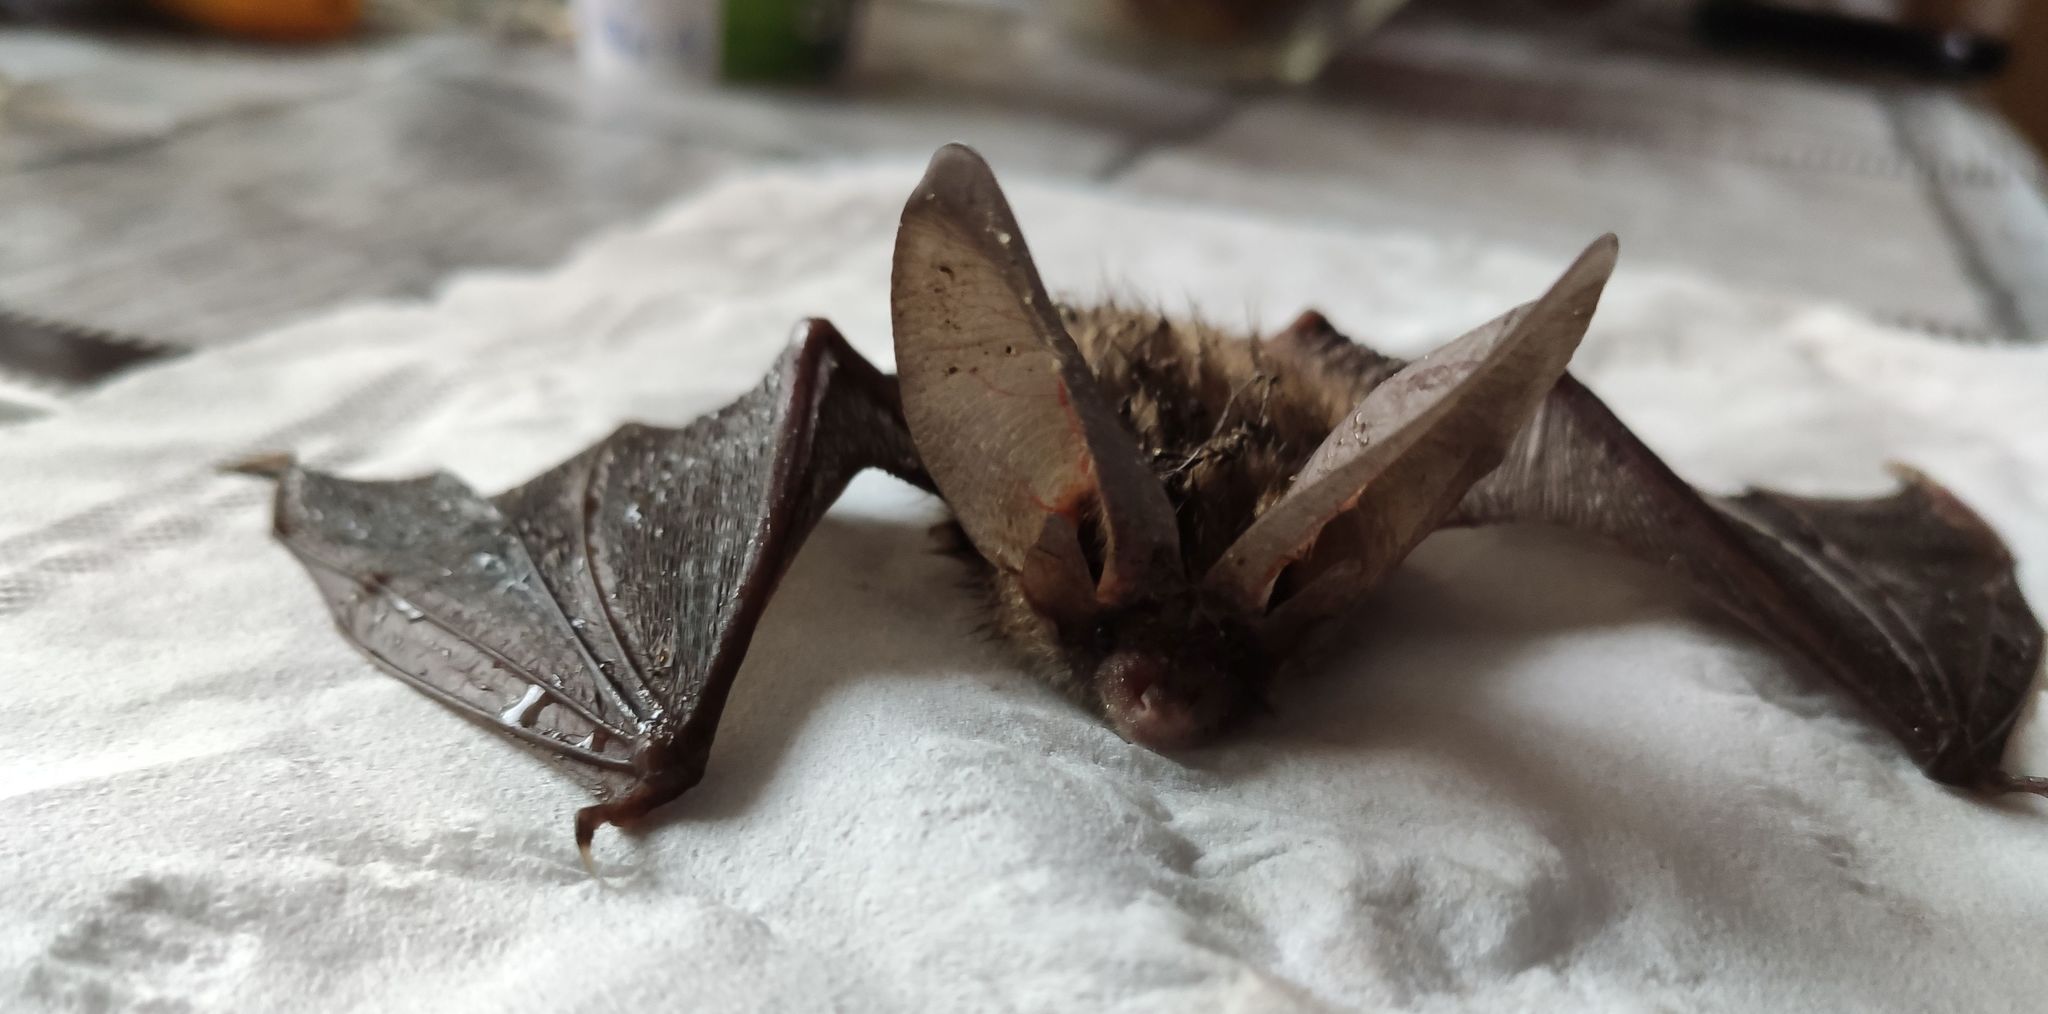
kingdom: Animalia
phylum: Chordata
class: Mammalia
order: Chiroptera
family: Vespertilionidae
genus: Plecotus
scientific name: Plecotus auritus
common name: Brown long-eared bat
